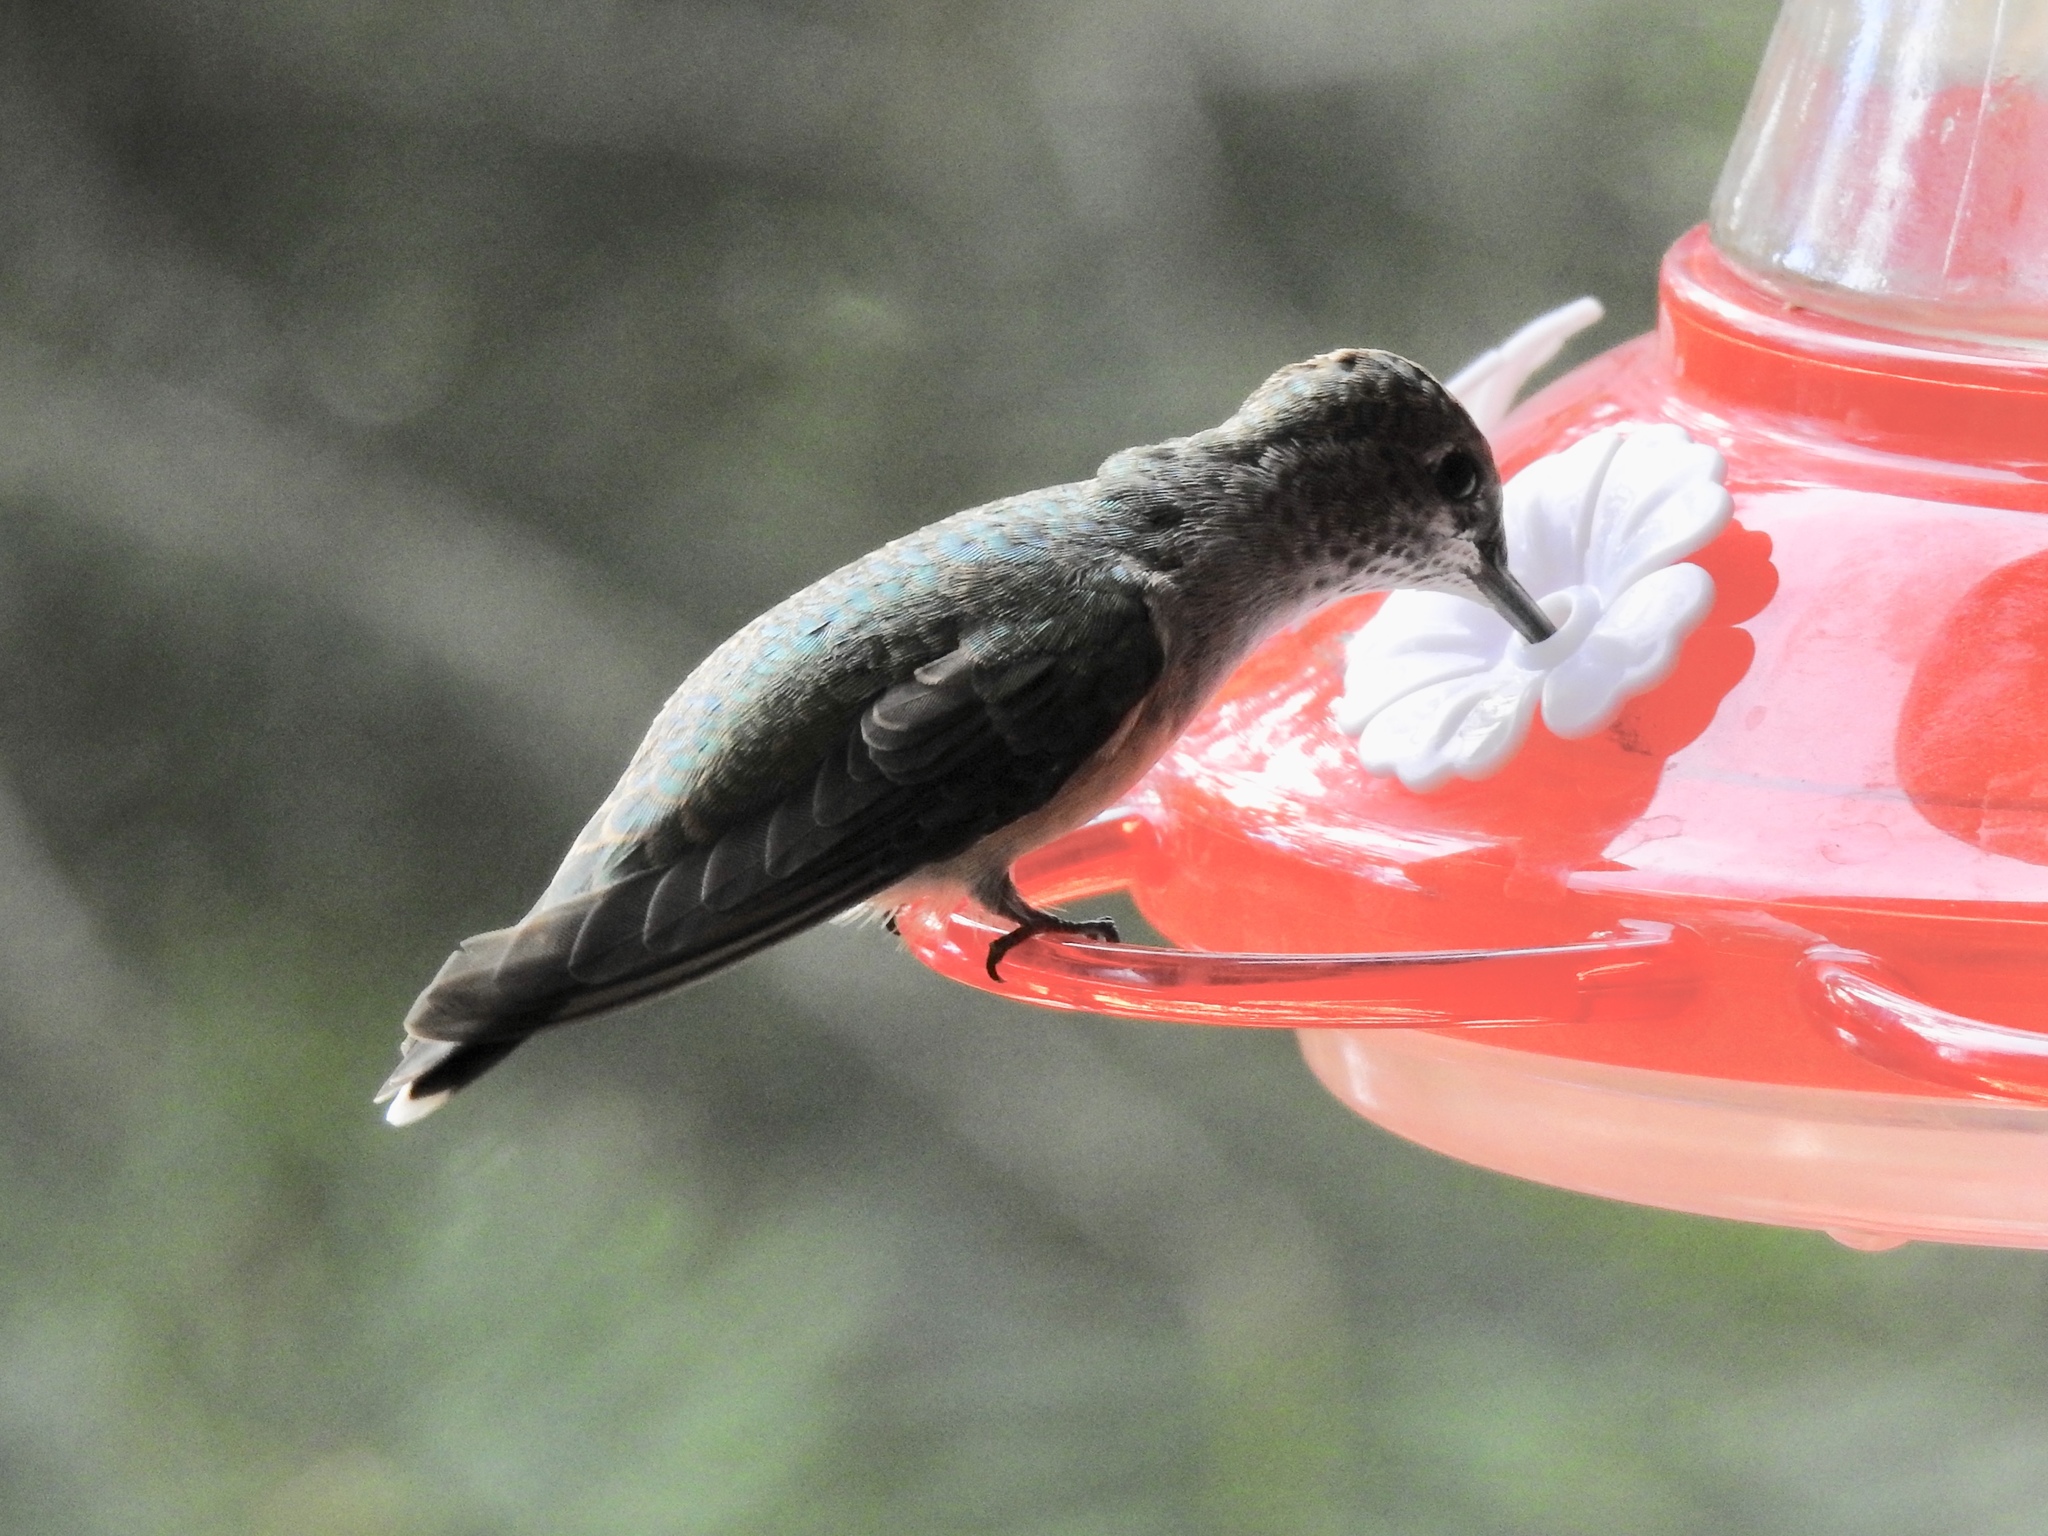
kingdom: Animalia
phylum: Chordata
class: Aves
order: Apodiformes
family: Trochilidae
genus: Archilochus
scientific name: Archilochus alexandri
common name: Black-chinned hummingbird
